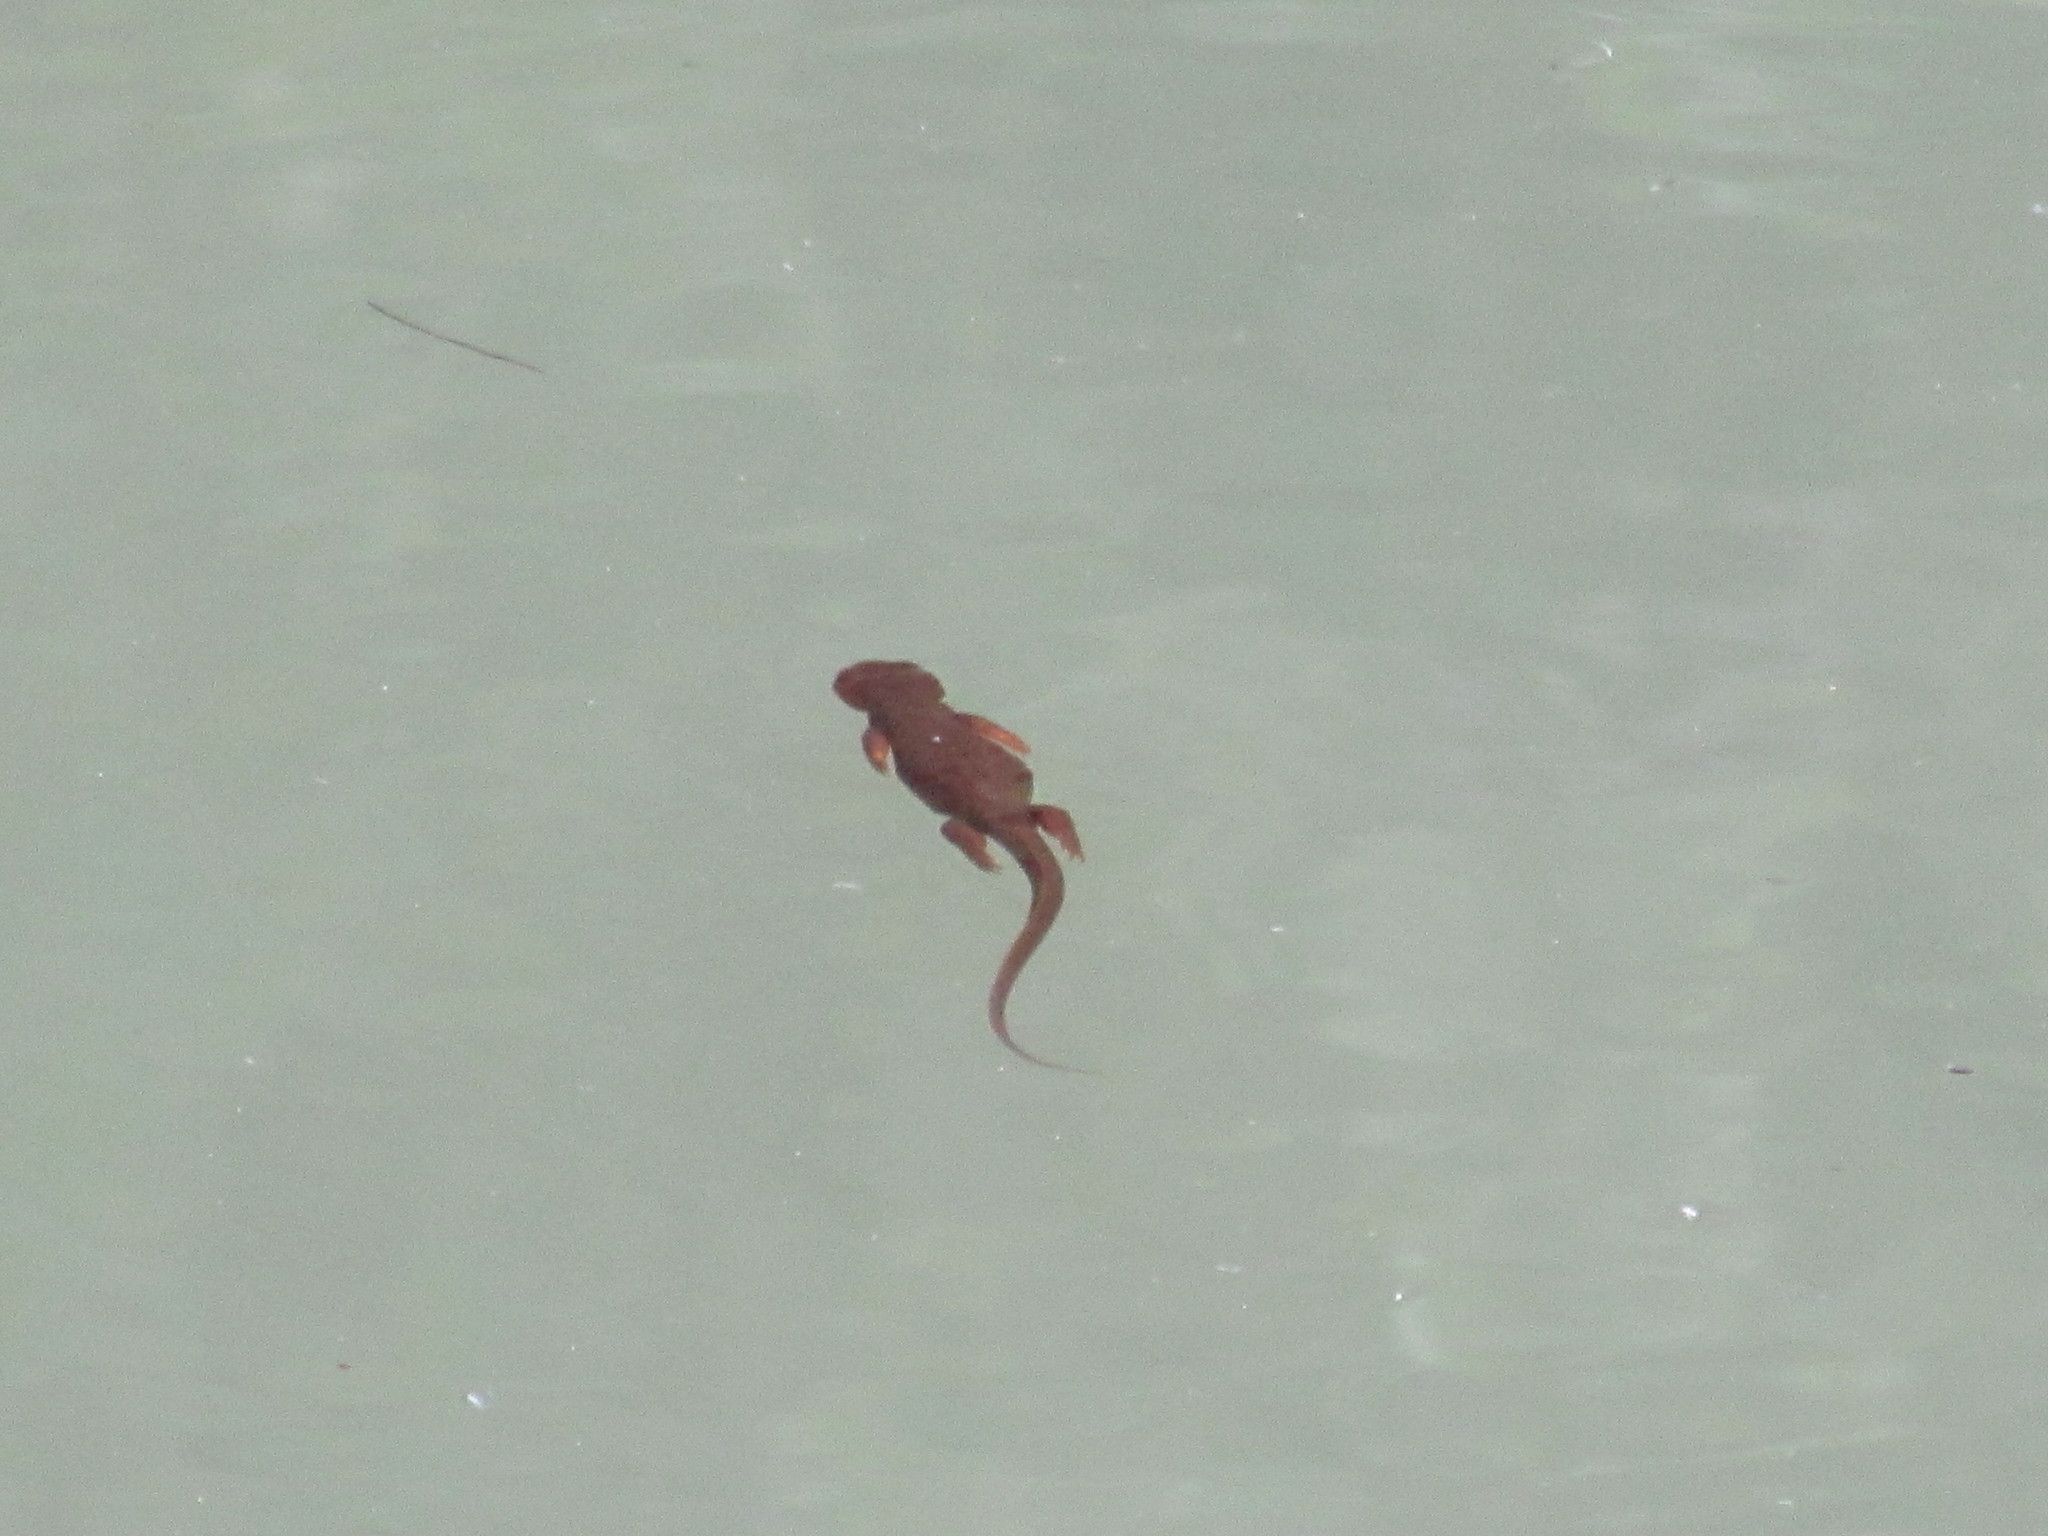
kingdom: Animalia
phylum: Chordata
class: Amphibia
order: Caudata
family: Salamandridae
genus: Taricha
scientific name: Taricha granulosa
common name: Roughskin newt
